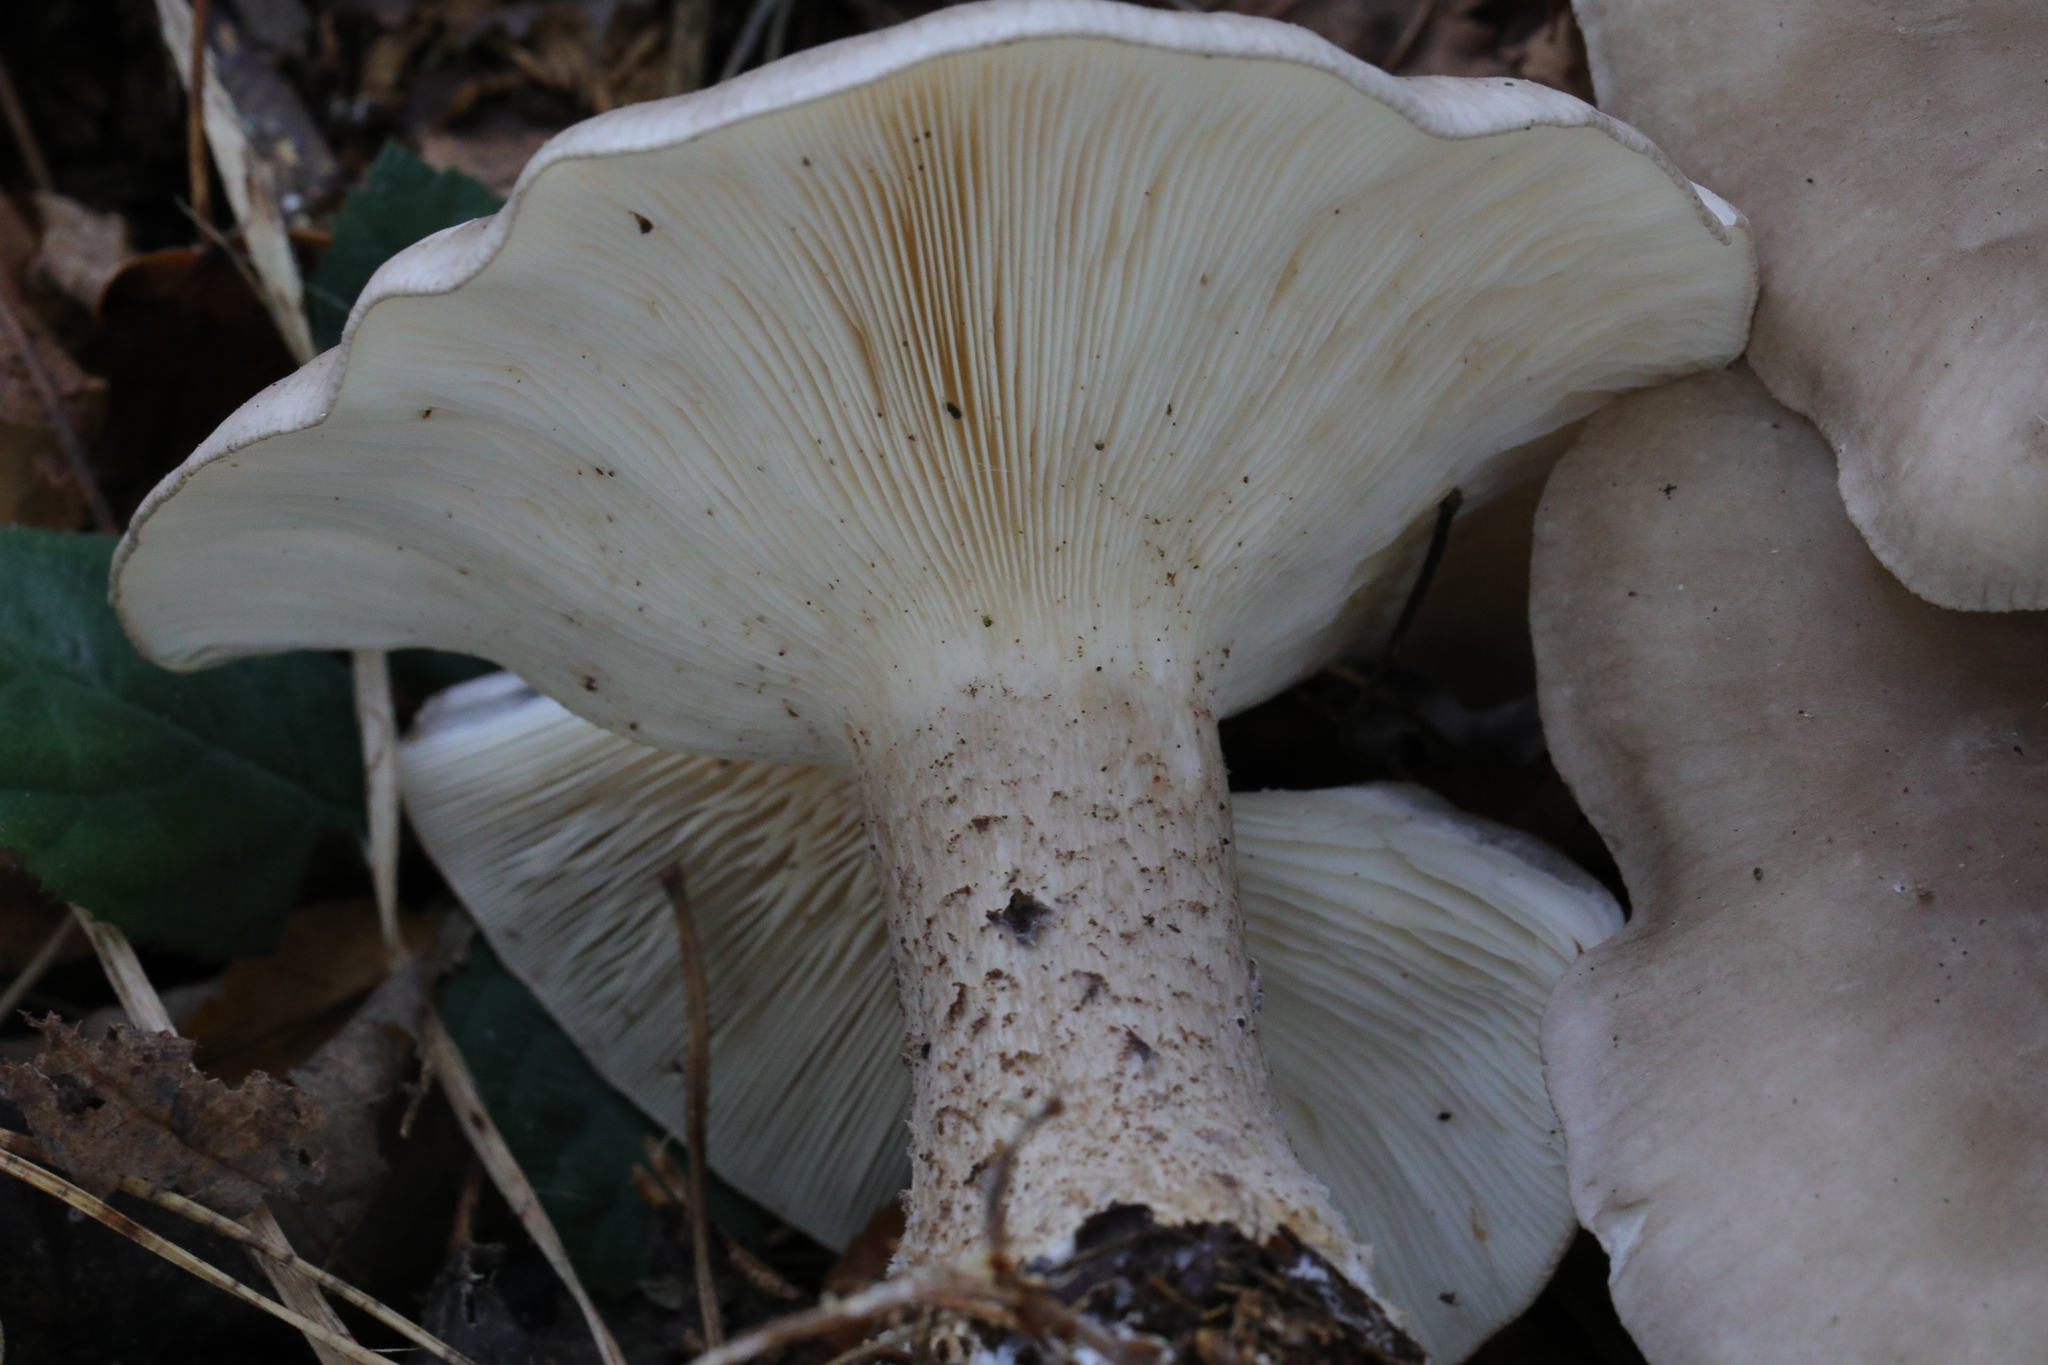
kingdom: Fungi
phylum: Basidiomycota
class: Agaricomycetes
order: Agaricales
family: Tricholomataceae
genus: Clitocybe
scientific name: Clitocybe nebularis
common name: Clouded agaric
